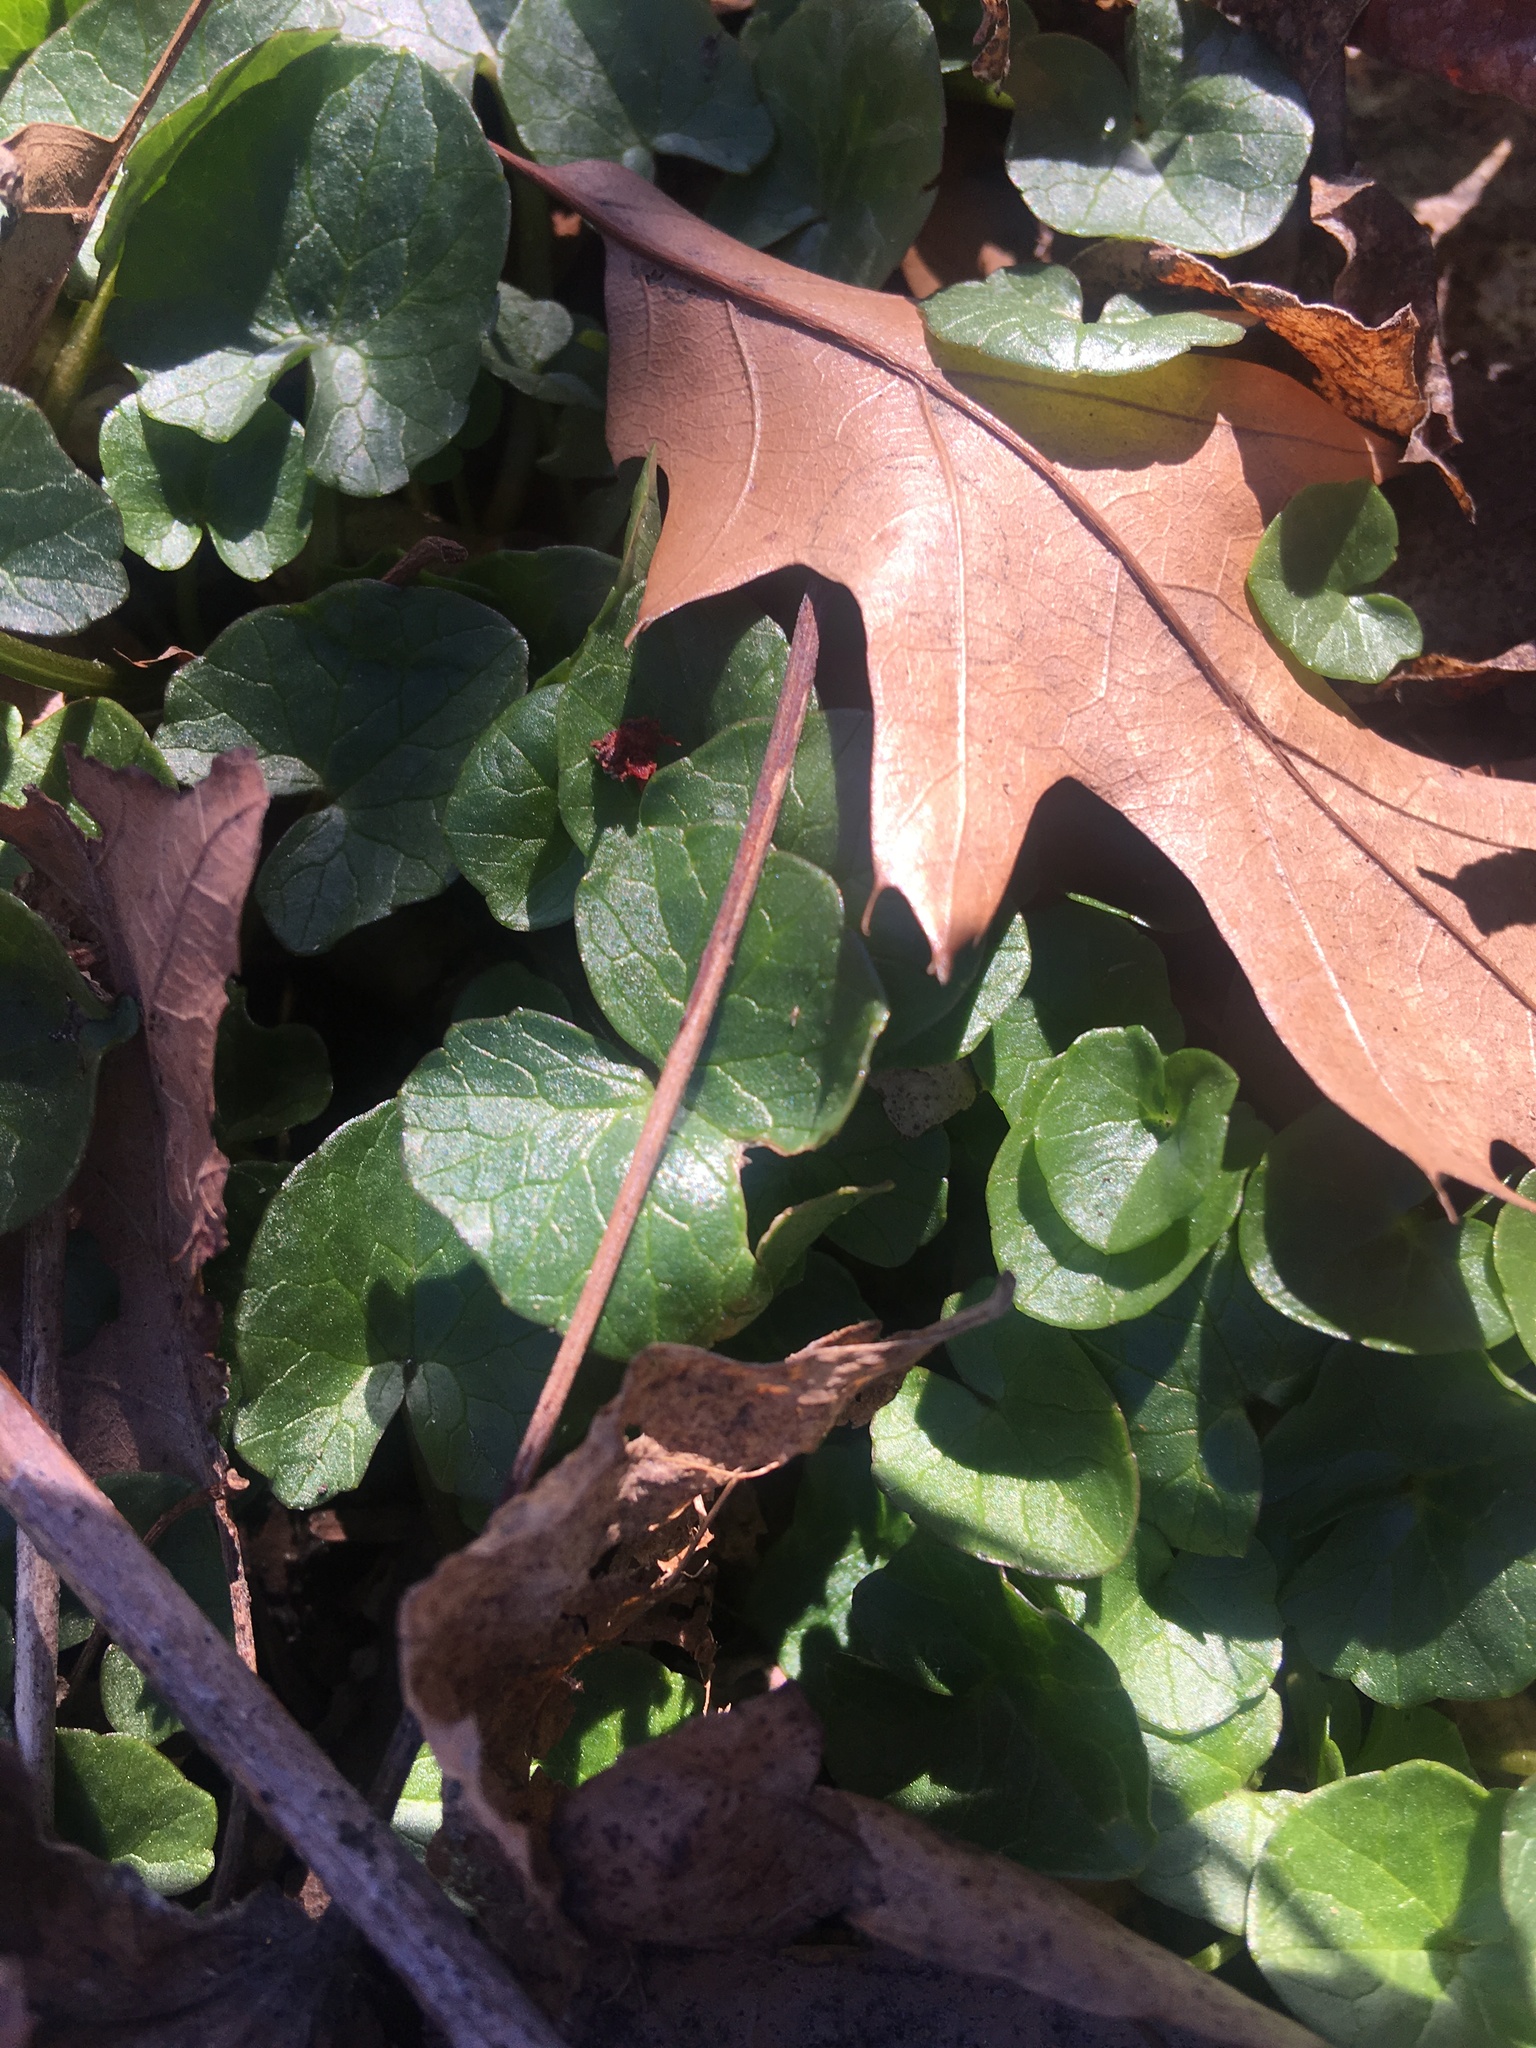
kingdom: Plantae
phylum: Tracheophyta
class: Magnoliopsida
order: Ranunculales
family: Ranunculaceae
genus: Ficaria
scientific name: Ficaria verna
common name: Lesser celandine
